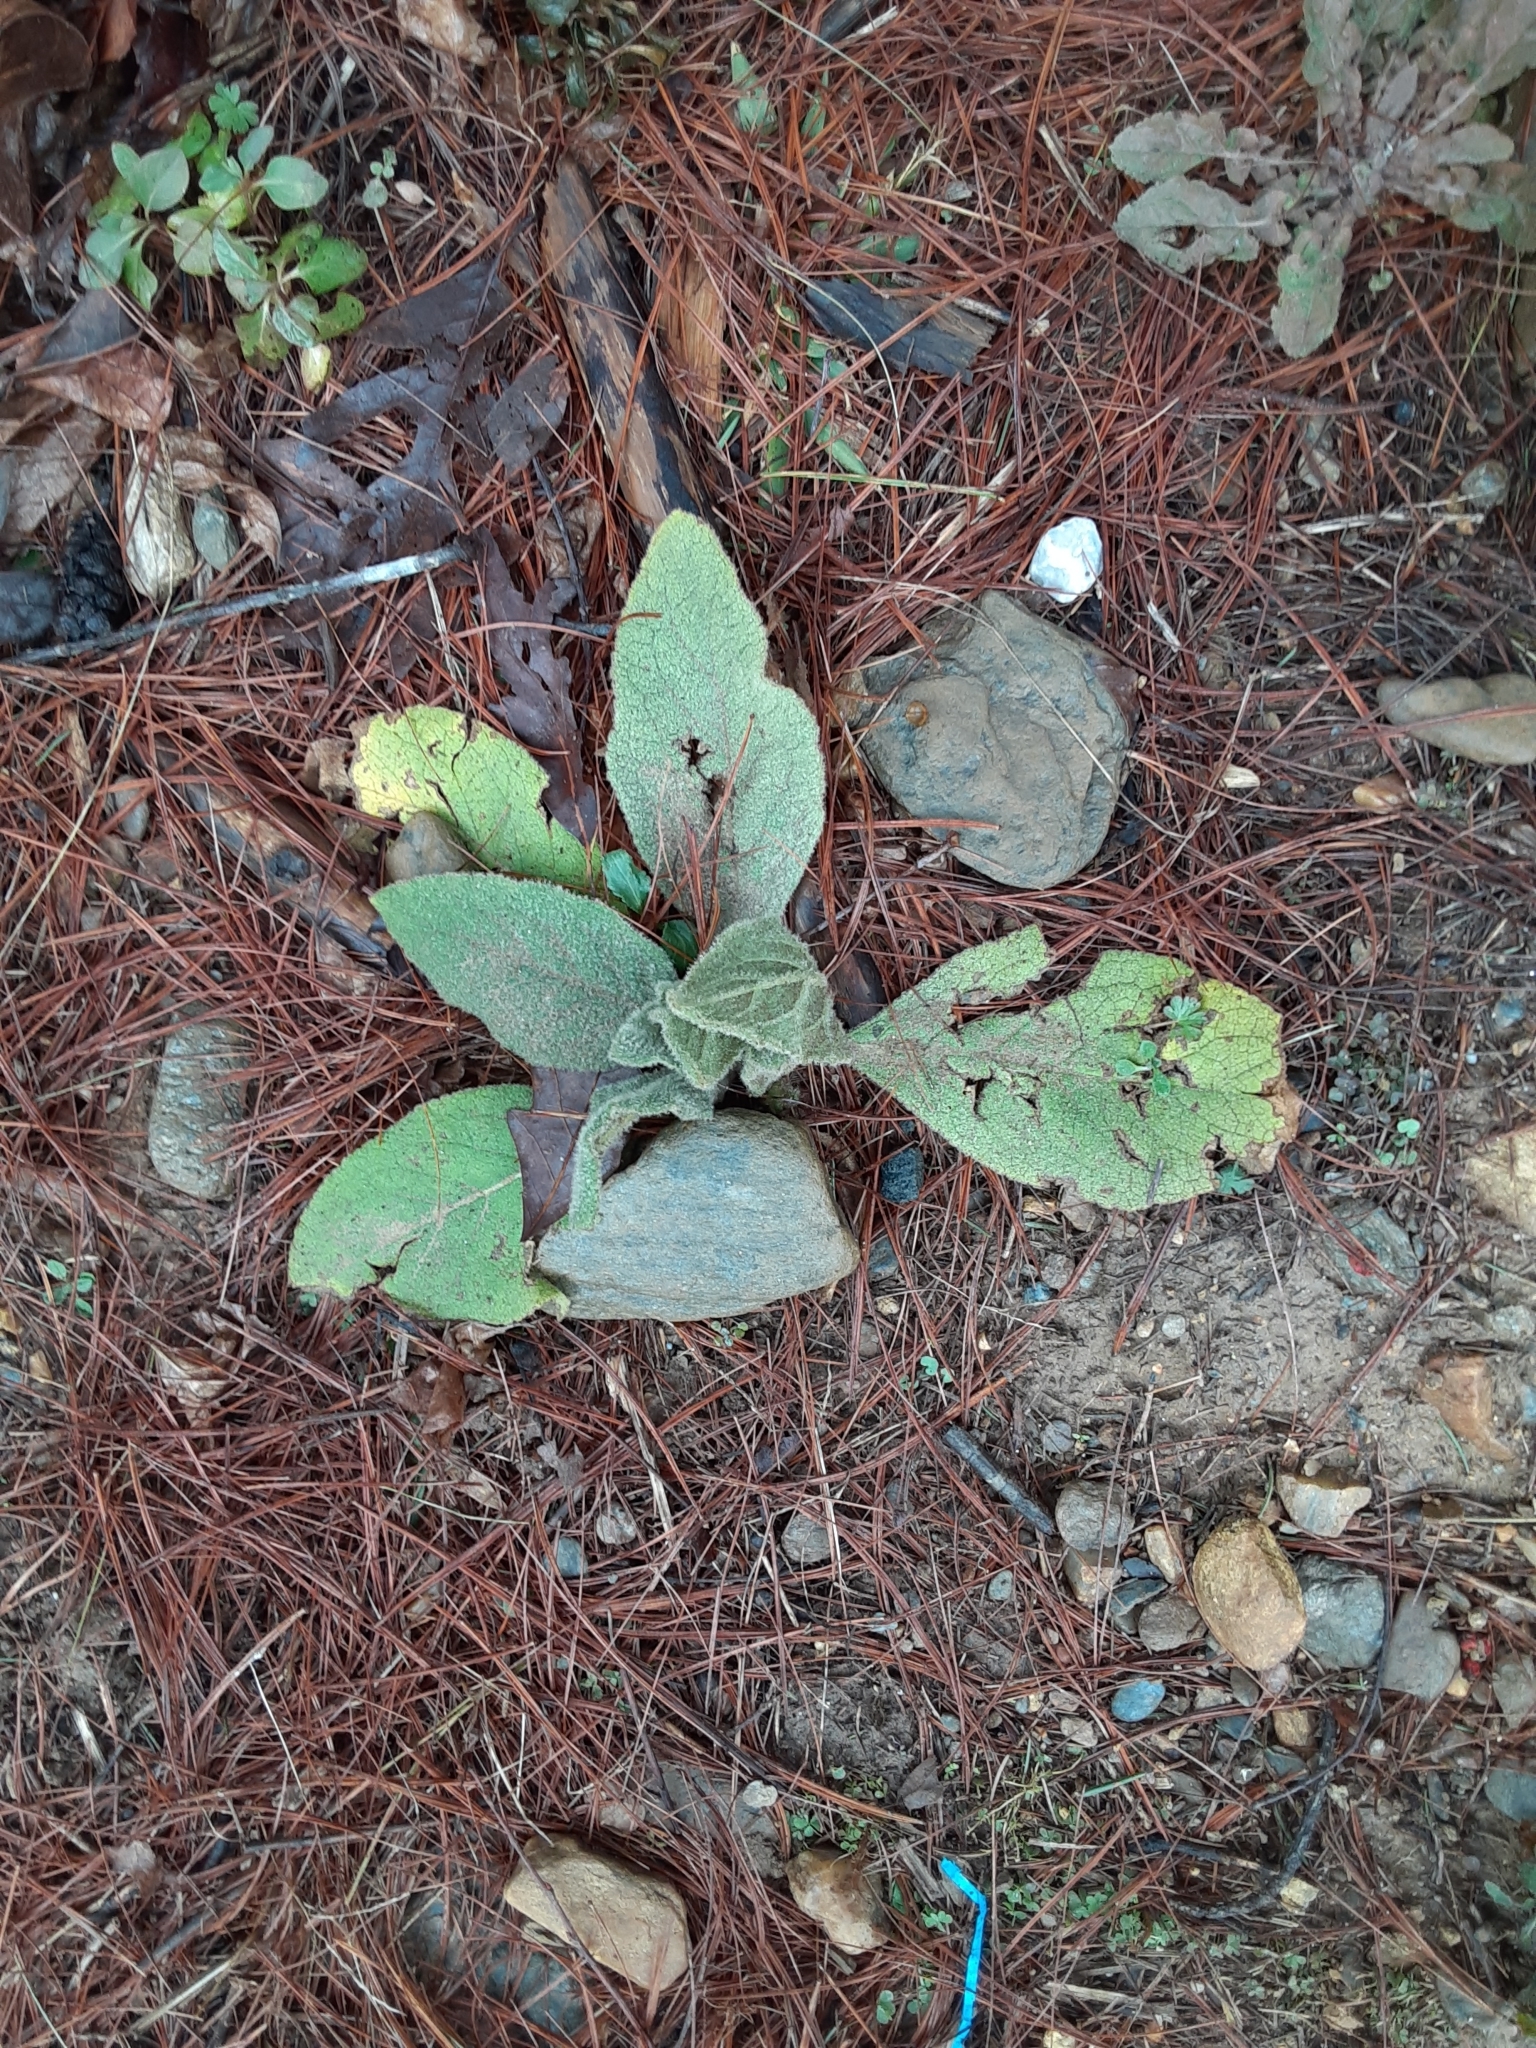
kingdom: Plantae
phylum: Tracheophyta
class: Magnoliopsida
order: Lamiales
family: Scrophulariaceae
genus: Verbascum
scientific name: Verbascum thapsus
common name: Common mullein
